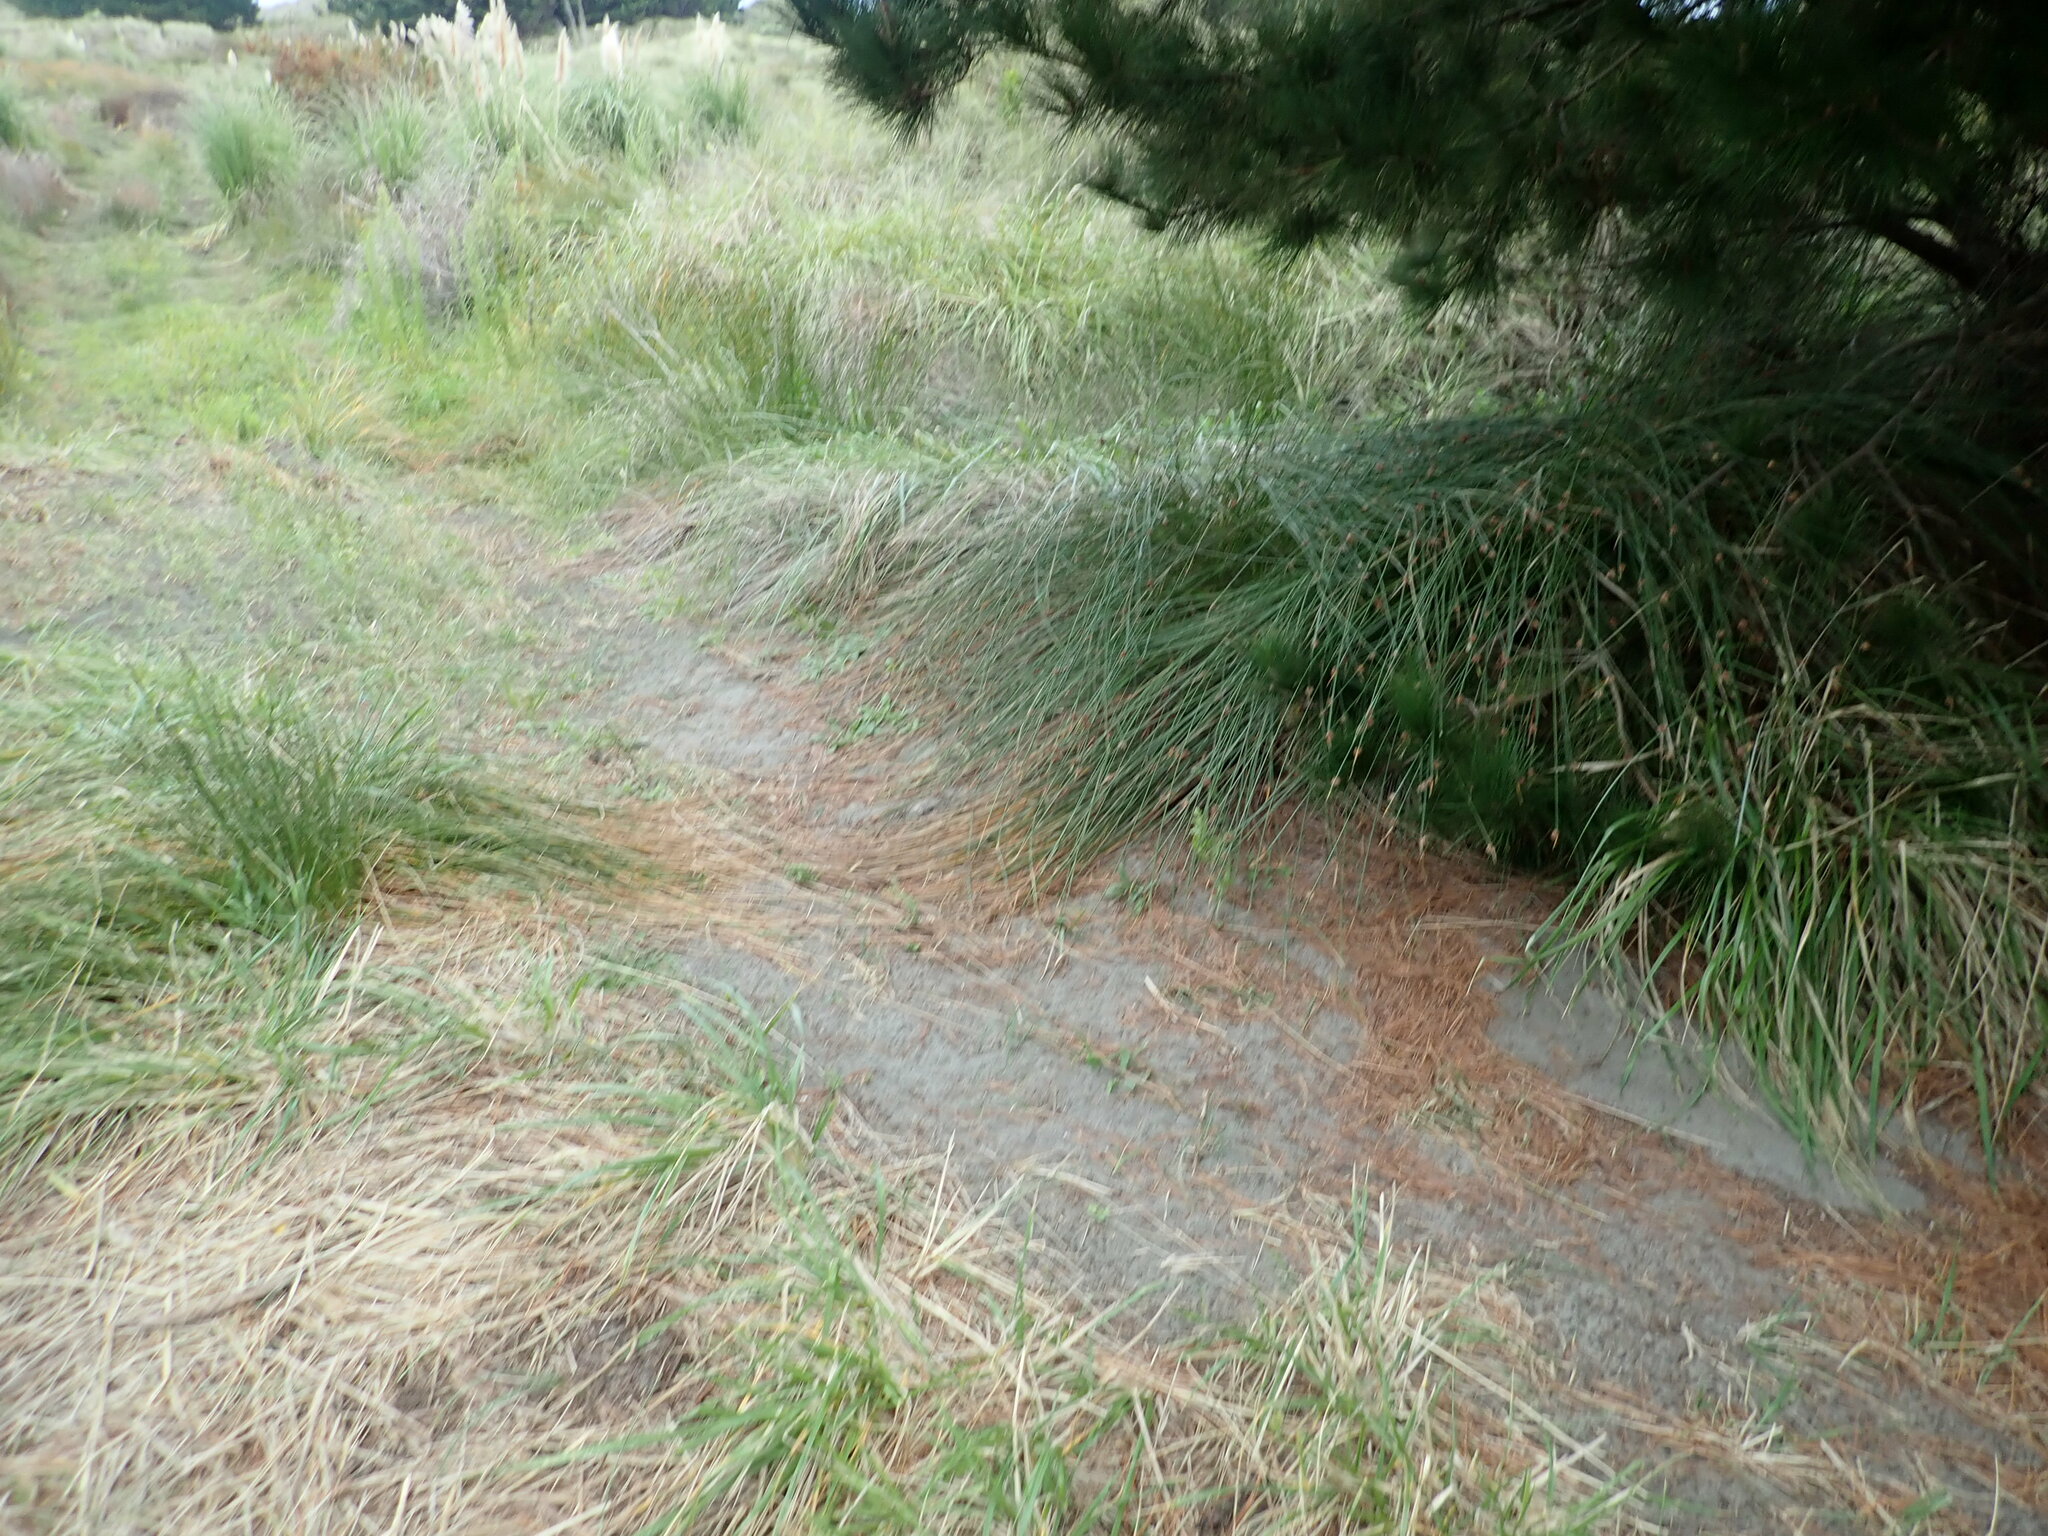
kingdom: Plantae
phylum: Tracheophyta
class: Liliopsida
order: Poales
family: Cyperaceae
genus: Ficinia
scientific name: Ficinia nodosa
